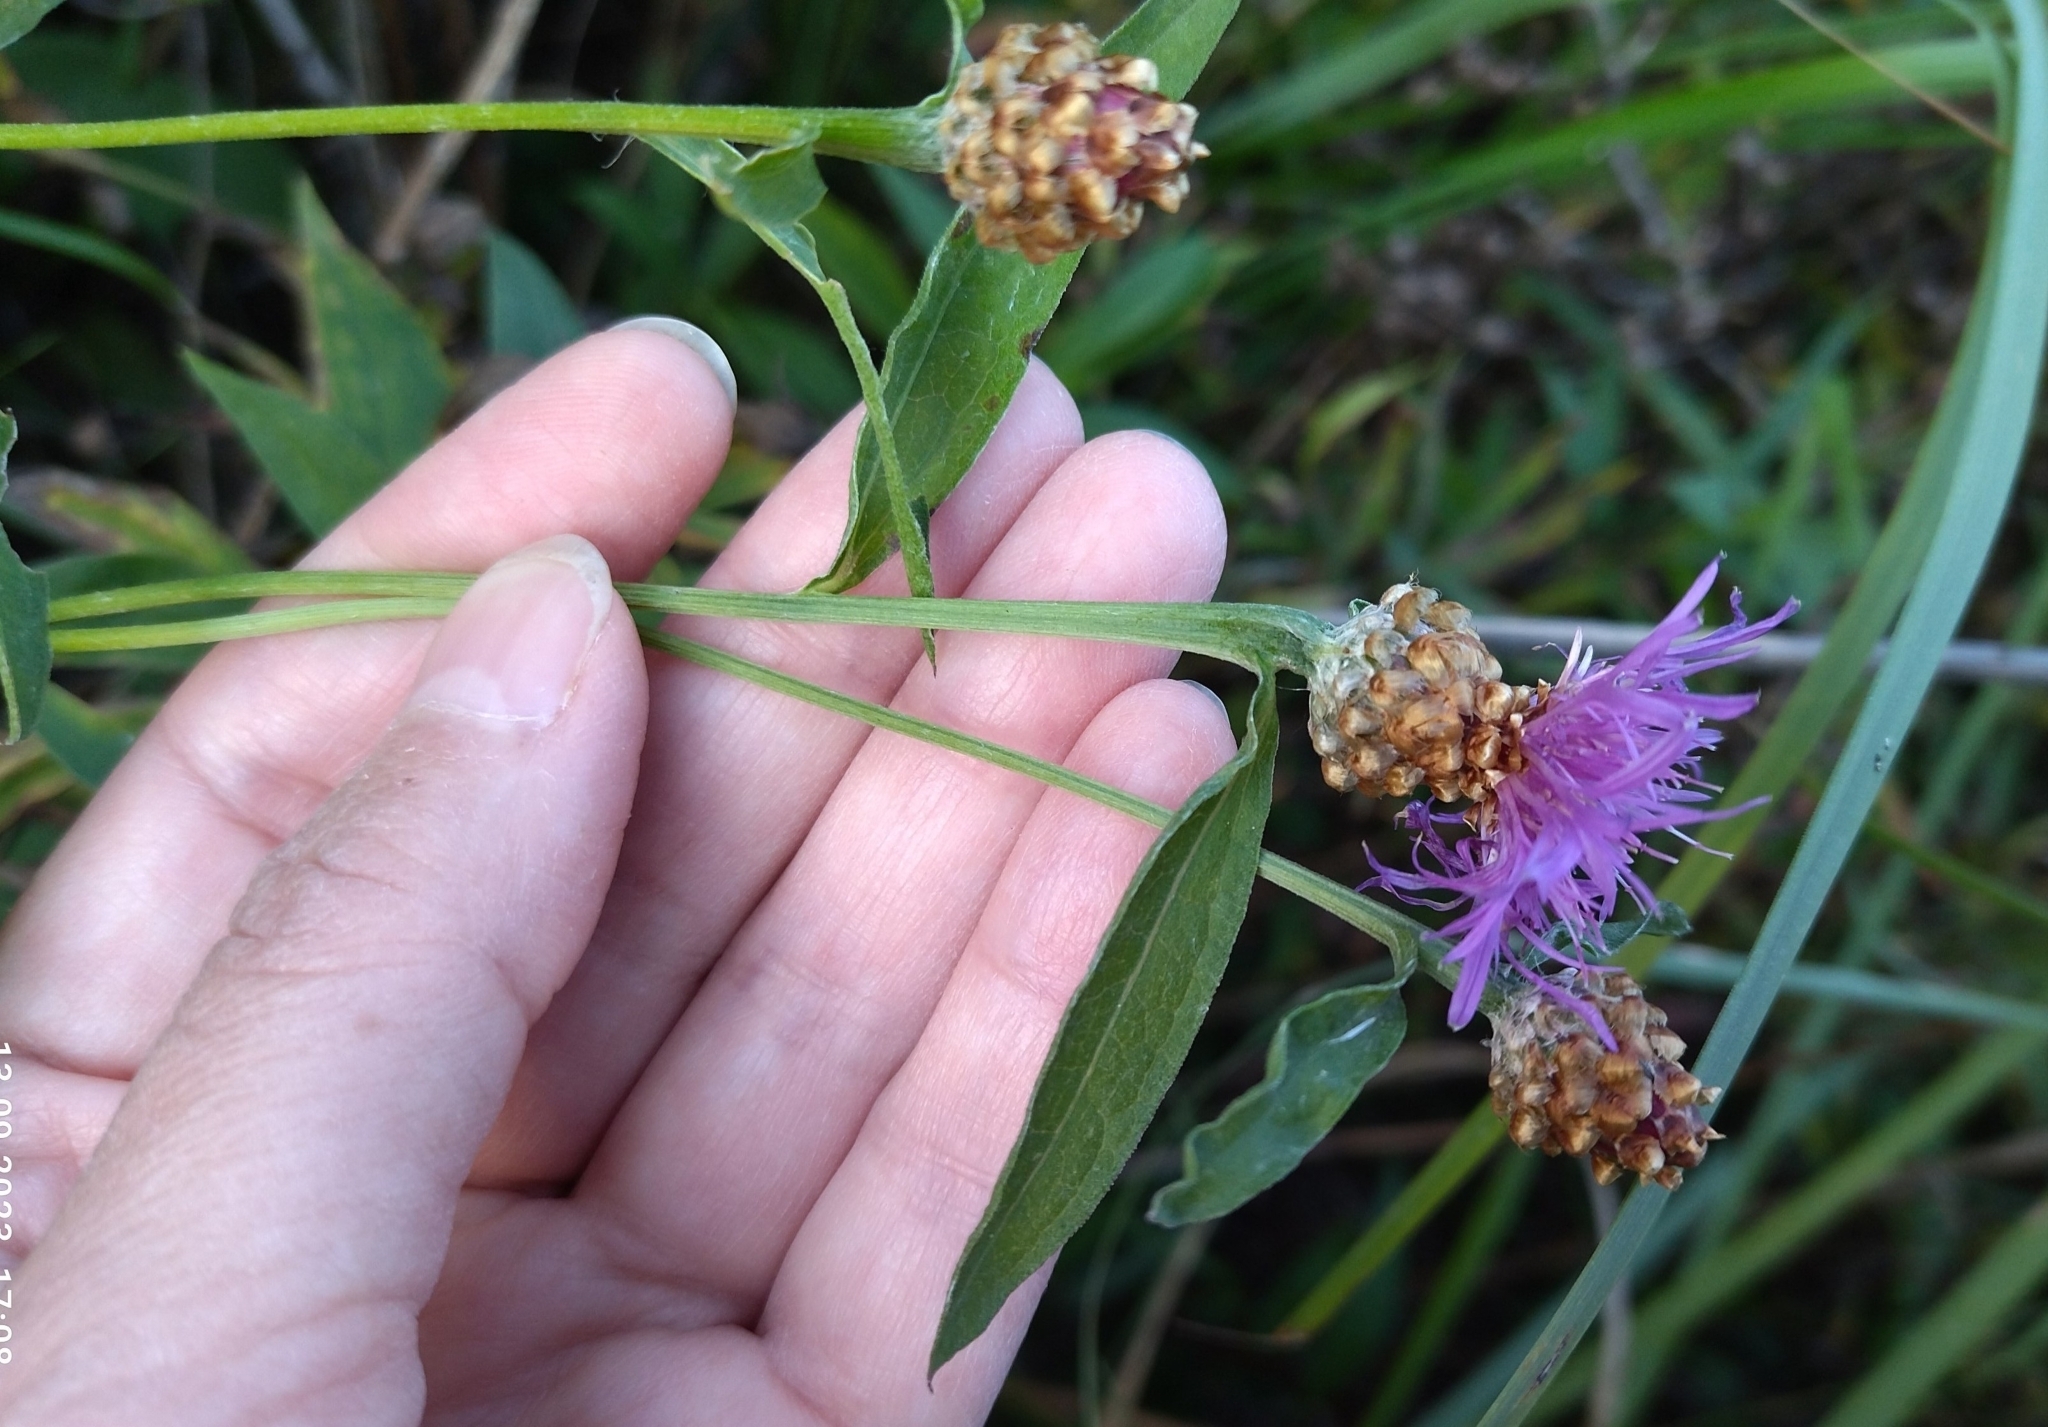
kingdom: Plantae
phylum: Tracheophyta
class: Magnoliopsida
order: Asterales
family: Asteraceae
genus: Centaurea
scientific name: Centaurea jacea
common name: Brown knapweed
